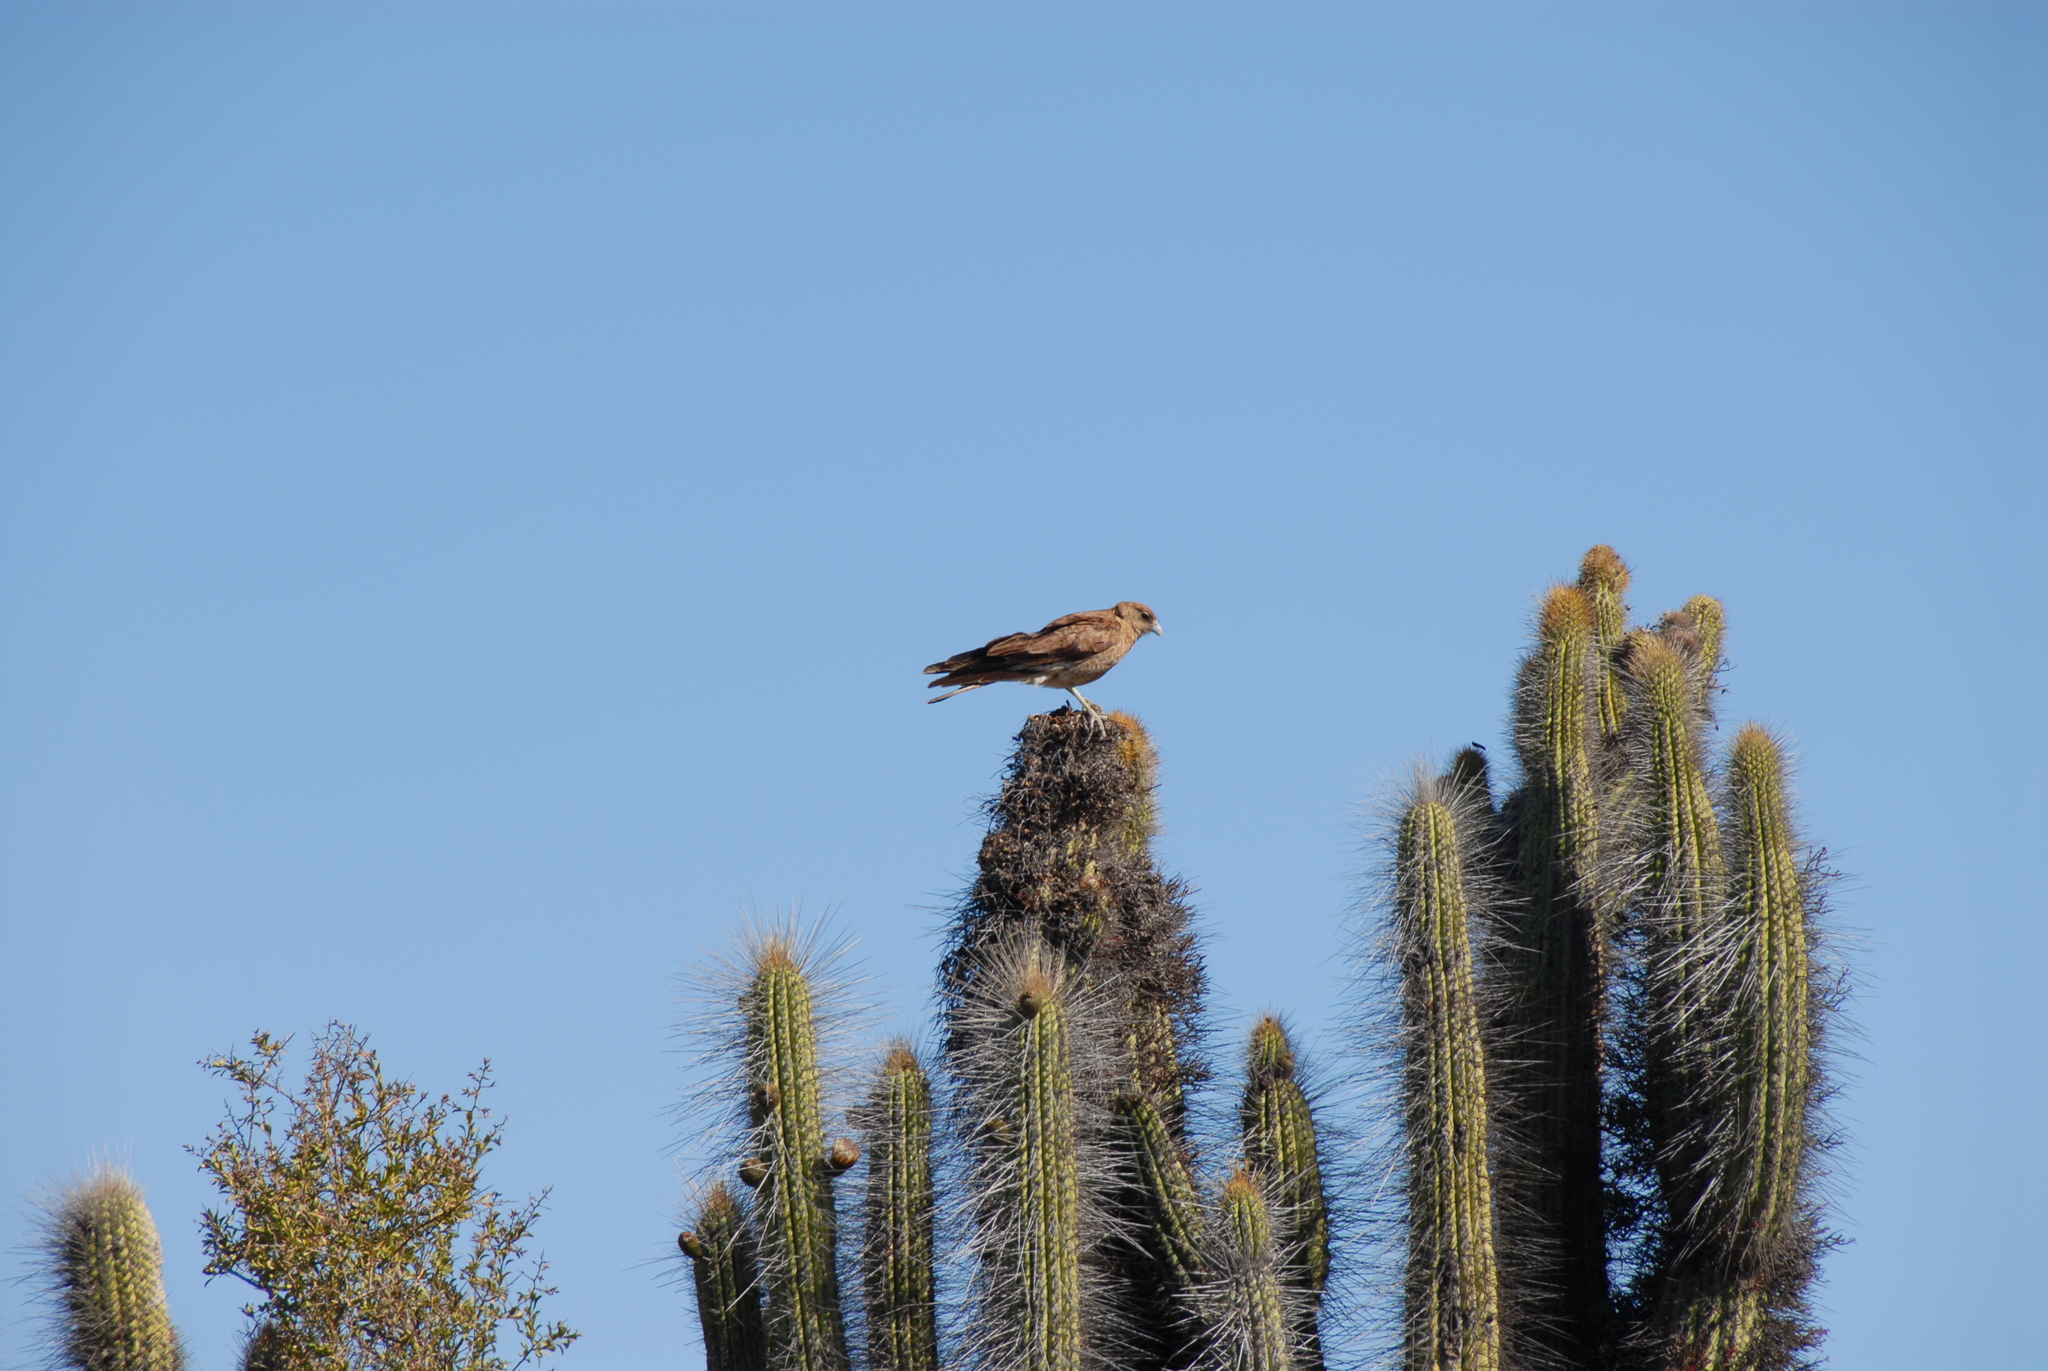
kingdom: Animalia
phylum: Chordata
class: Aves
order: Falconiformes
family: Falconidae
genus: Daptrius
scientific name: Daptrius
